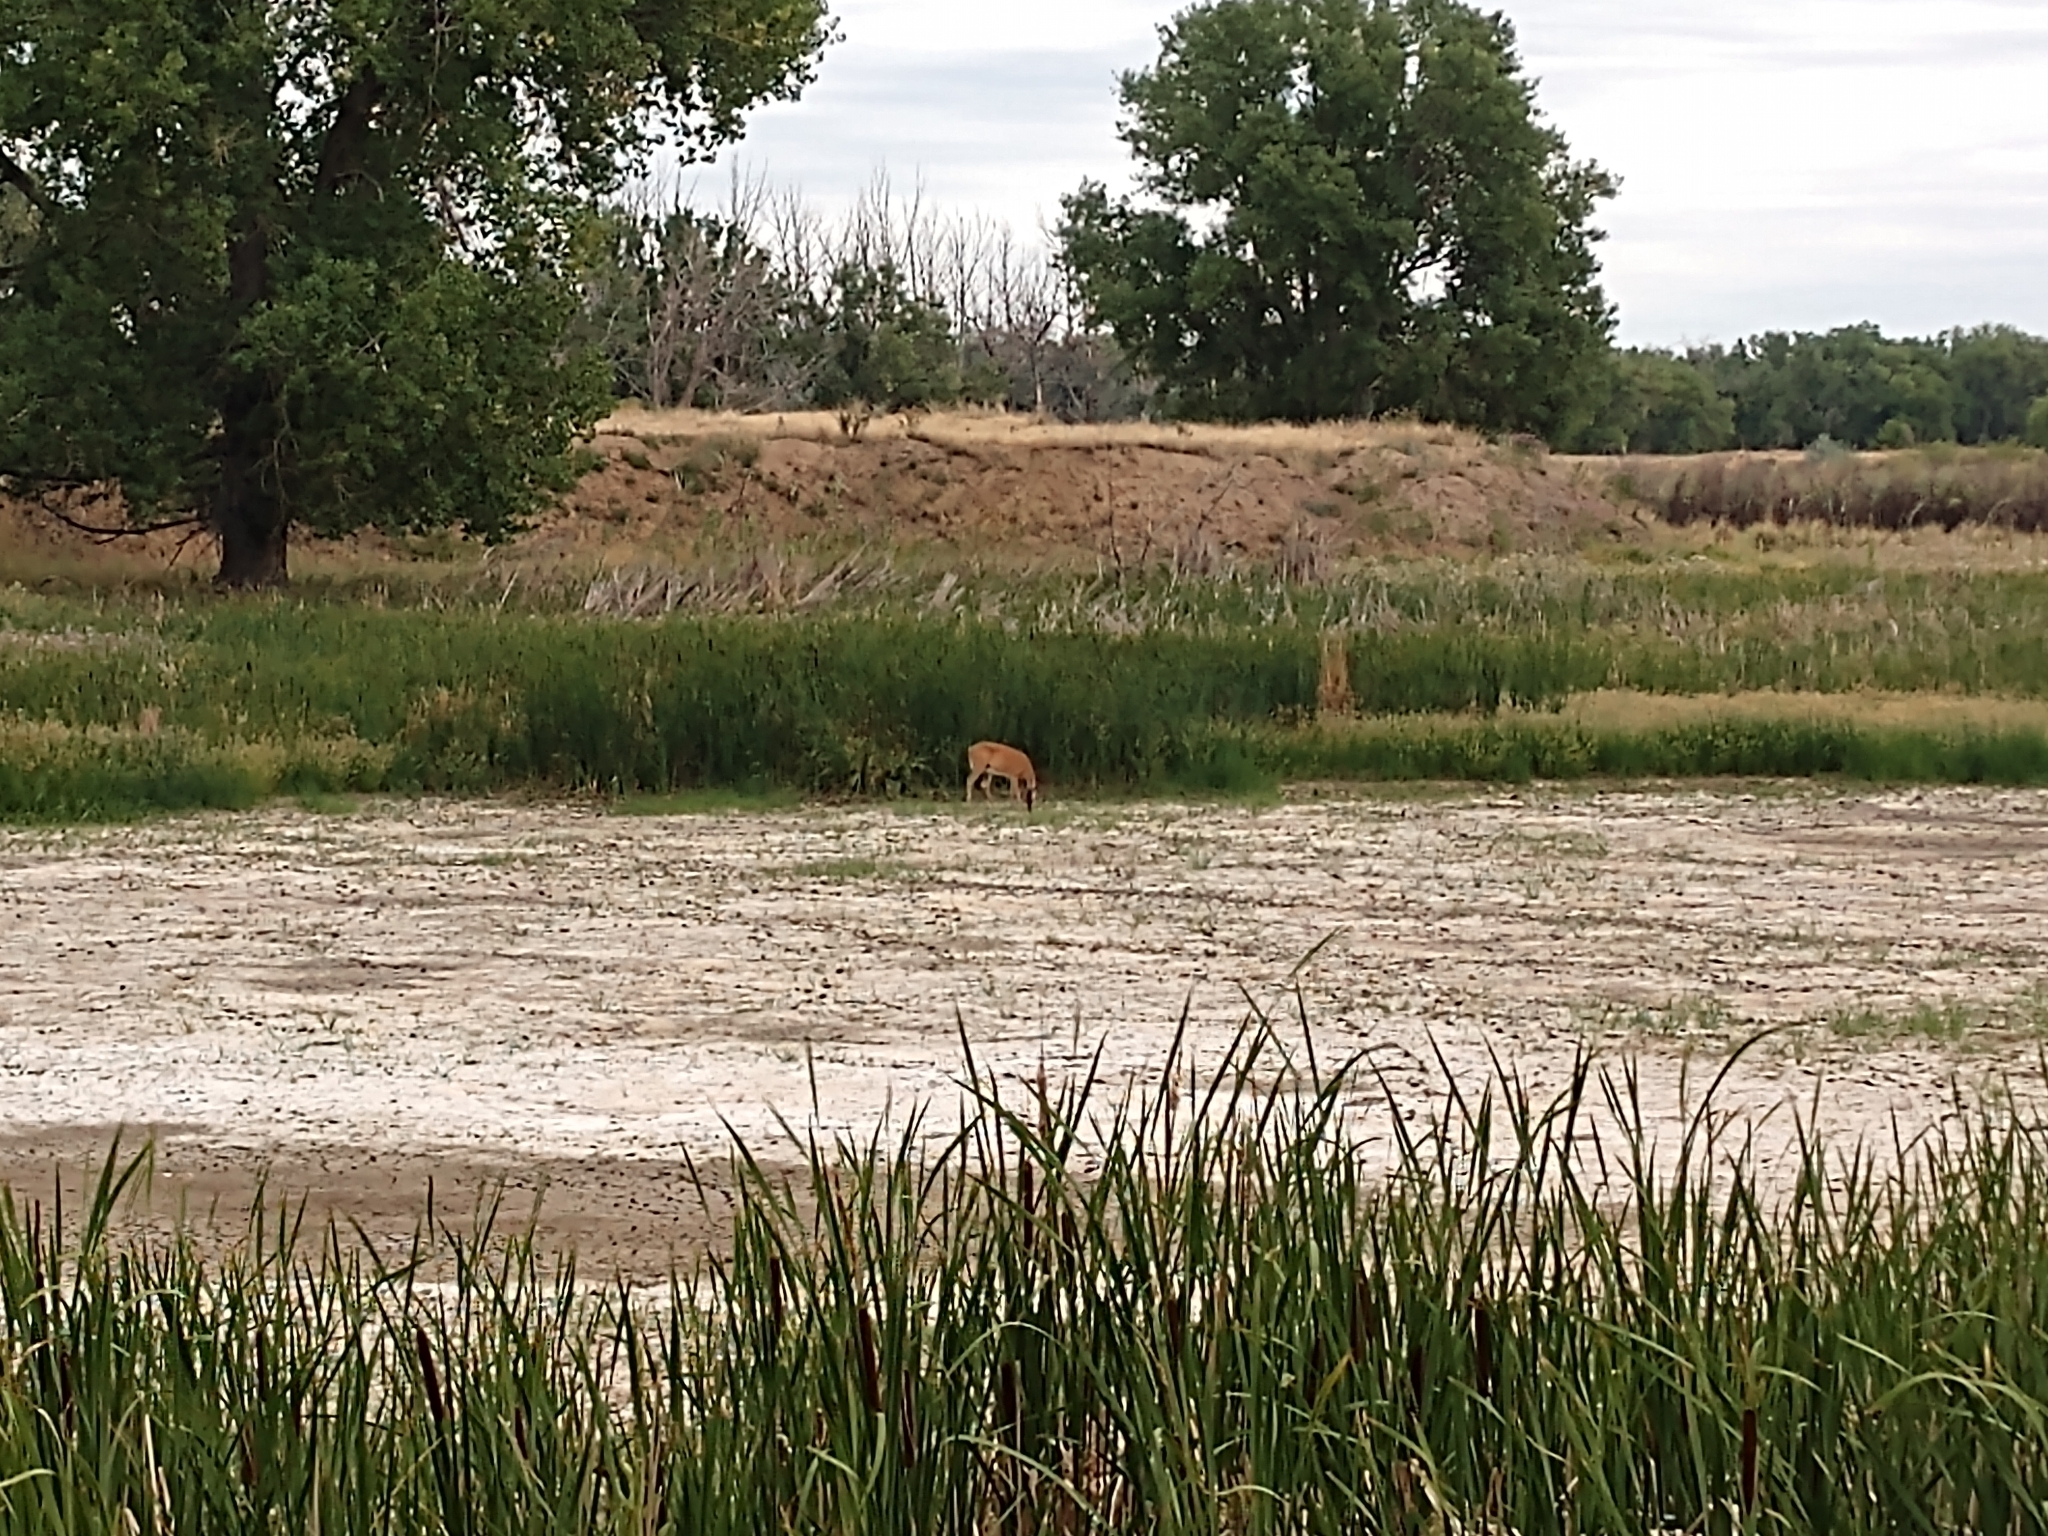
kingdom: Animalia
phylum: Chordata
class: Mammalia
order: Artiodactyla
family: Cervidae
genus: Odocoileus
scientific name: Odocoileus virginianus
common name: White-tailed deer
